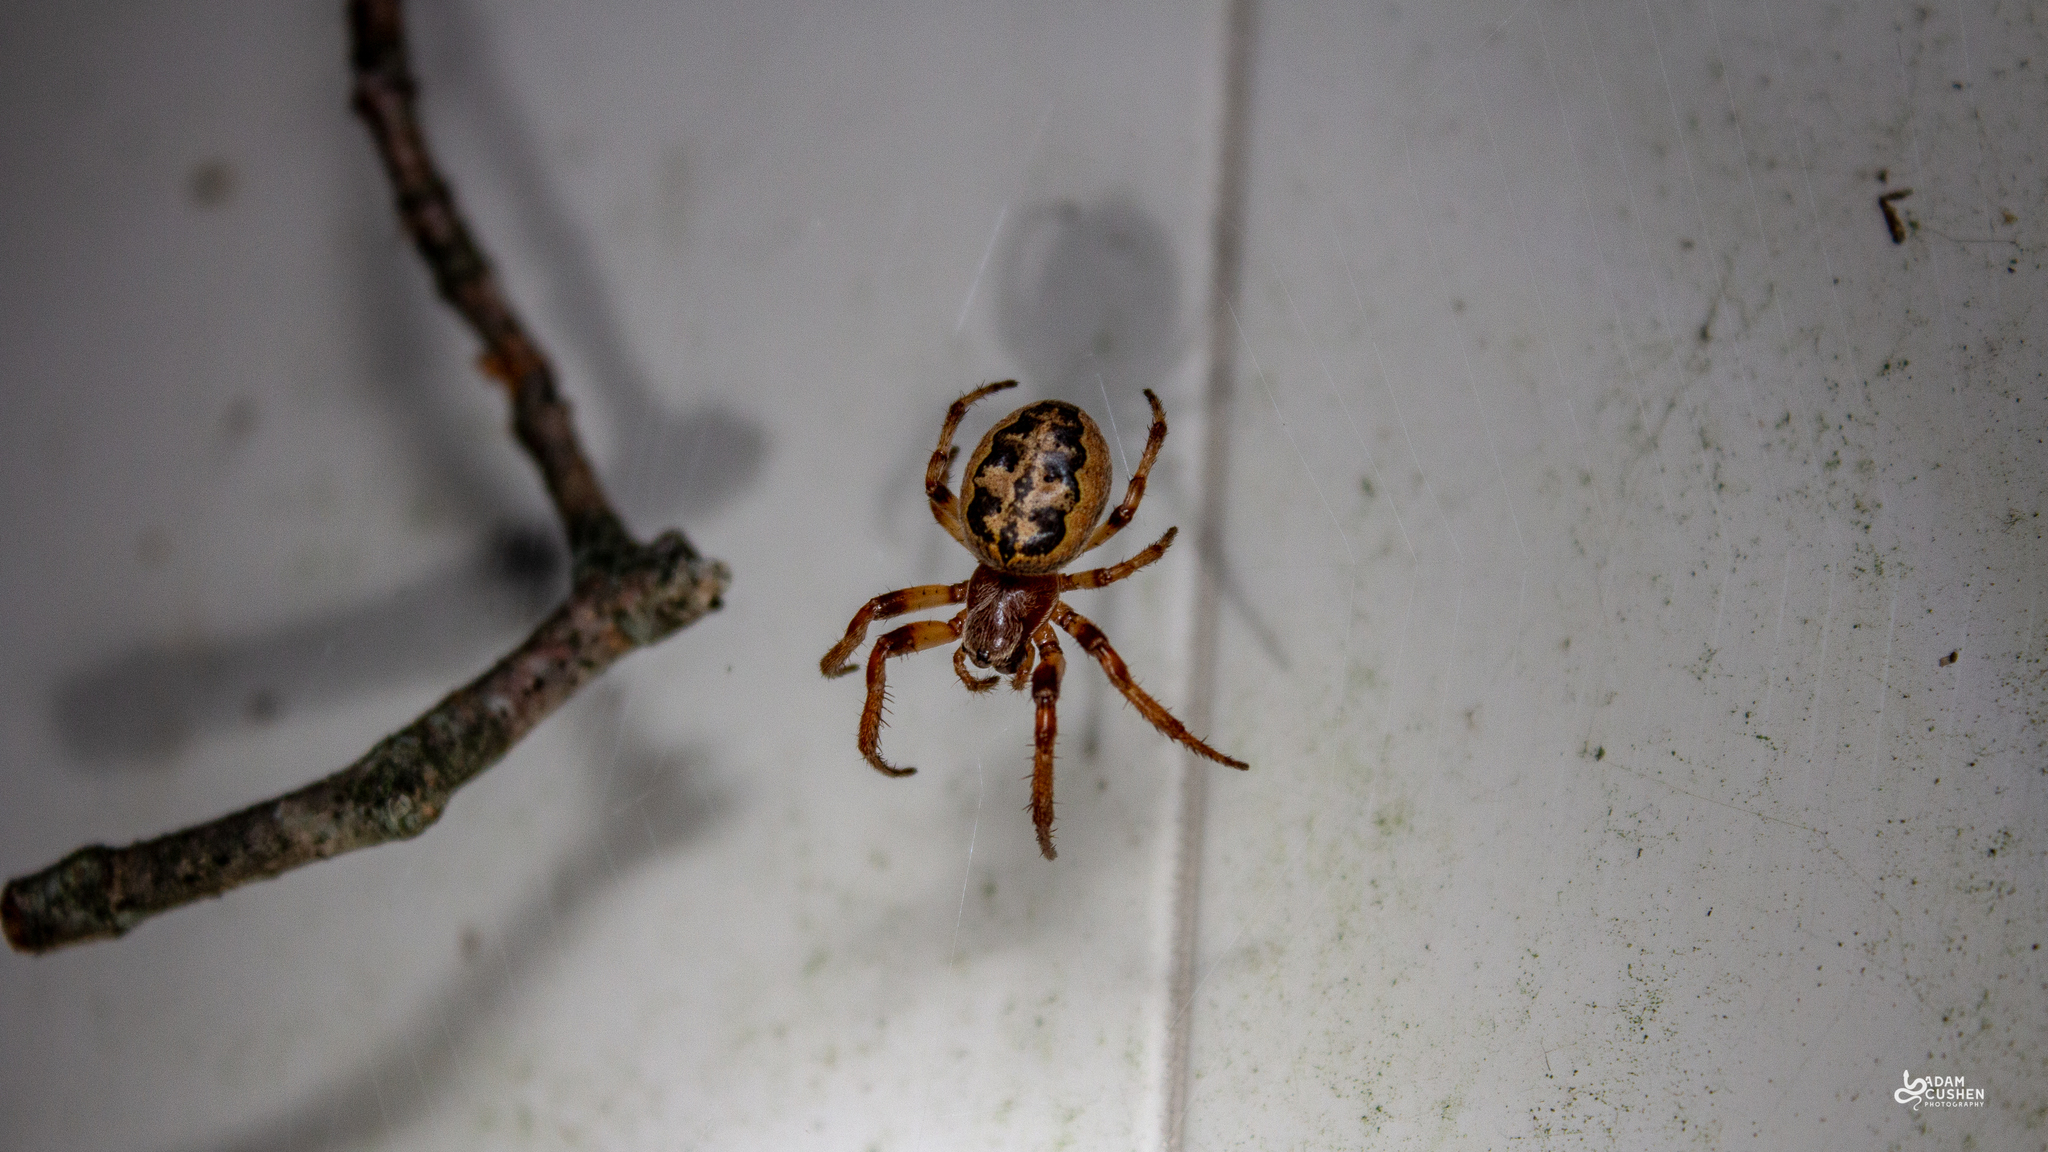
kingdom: Animalia
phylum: Arthropoda
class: Arachnida
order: Araneae
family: Araneidae
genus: Larinioides
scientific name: Larinioides cornutus
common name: Furrow orbweaver
